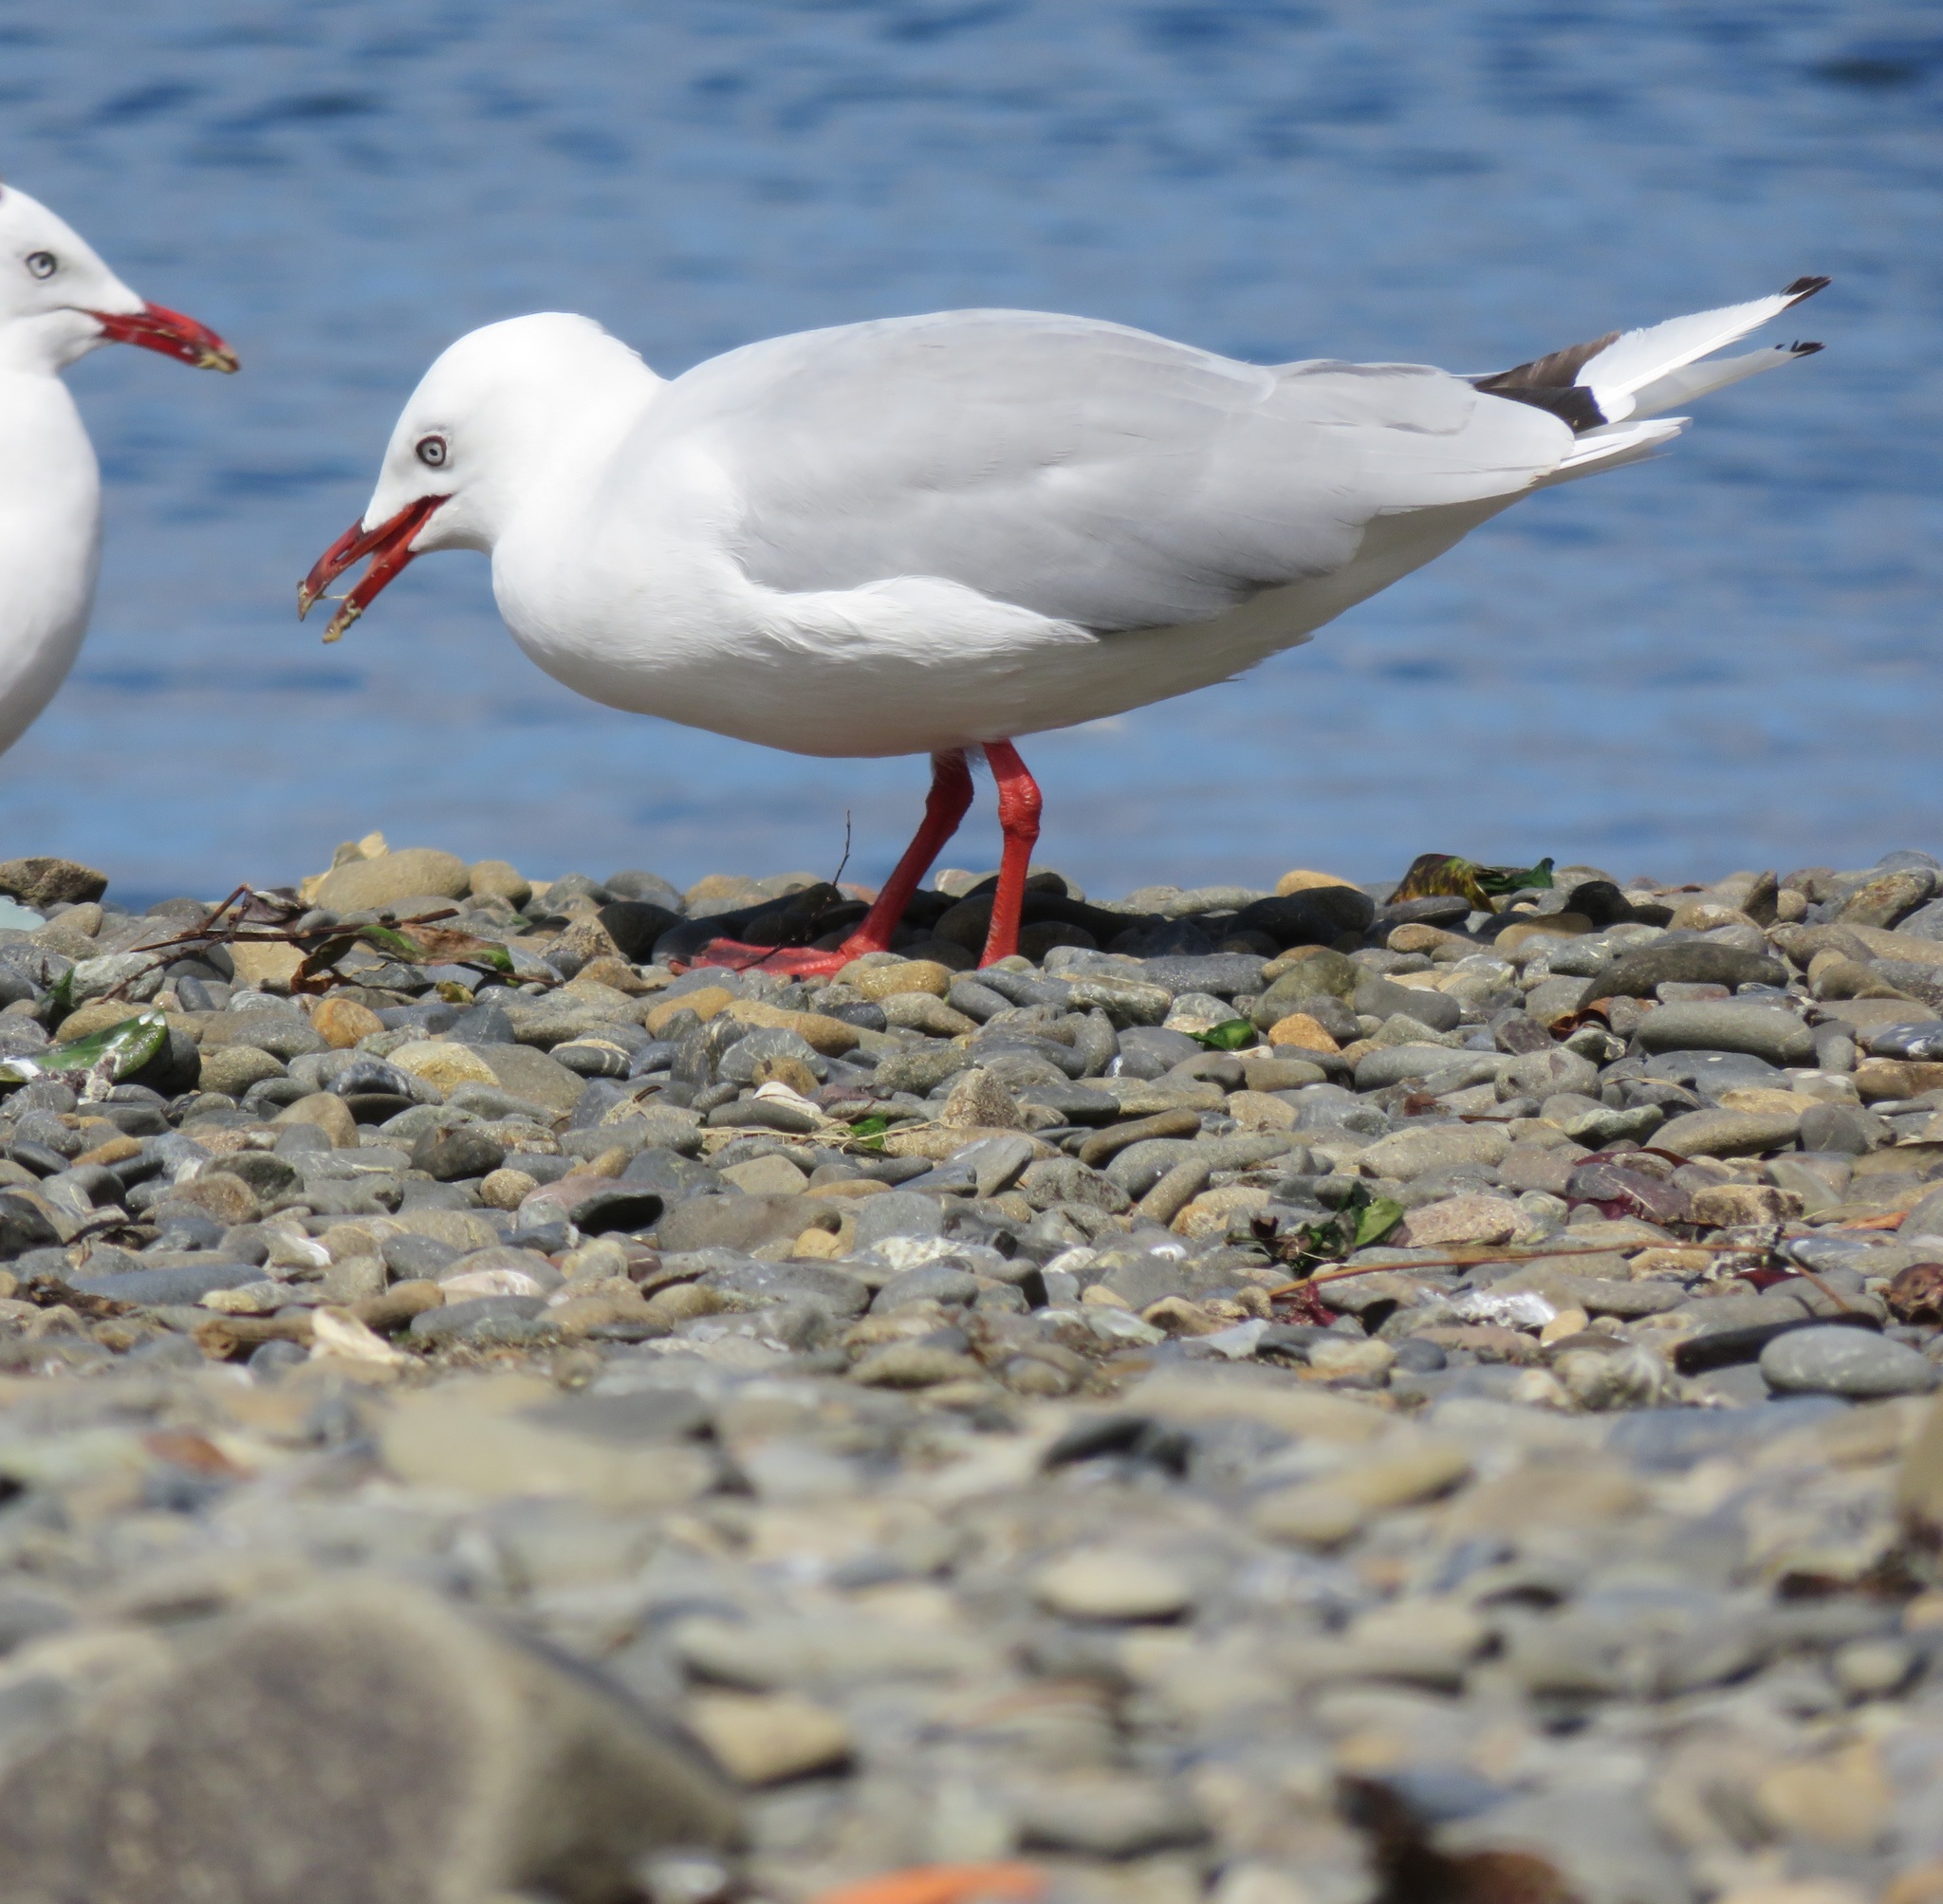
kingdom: Animalia
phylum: Chordata
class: Aves
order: Charadriiformes
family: Laridae
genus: Chroicocephalus
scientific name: Chroicocephalus novaehollandiae
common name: Silver gull
